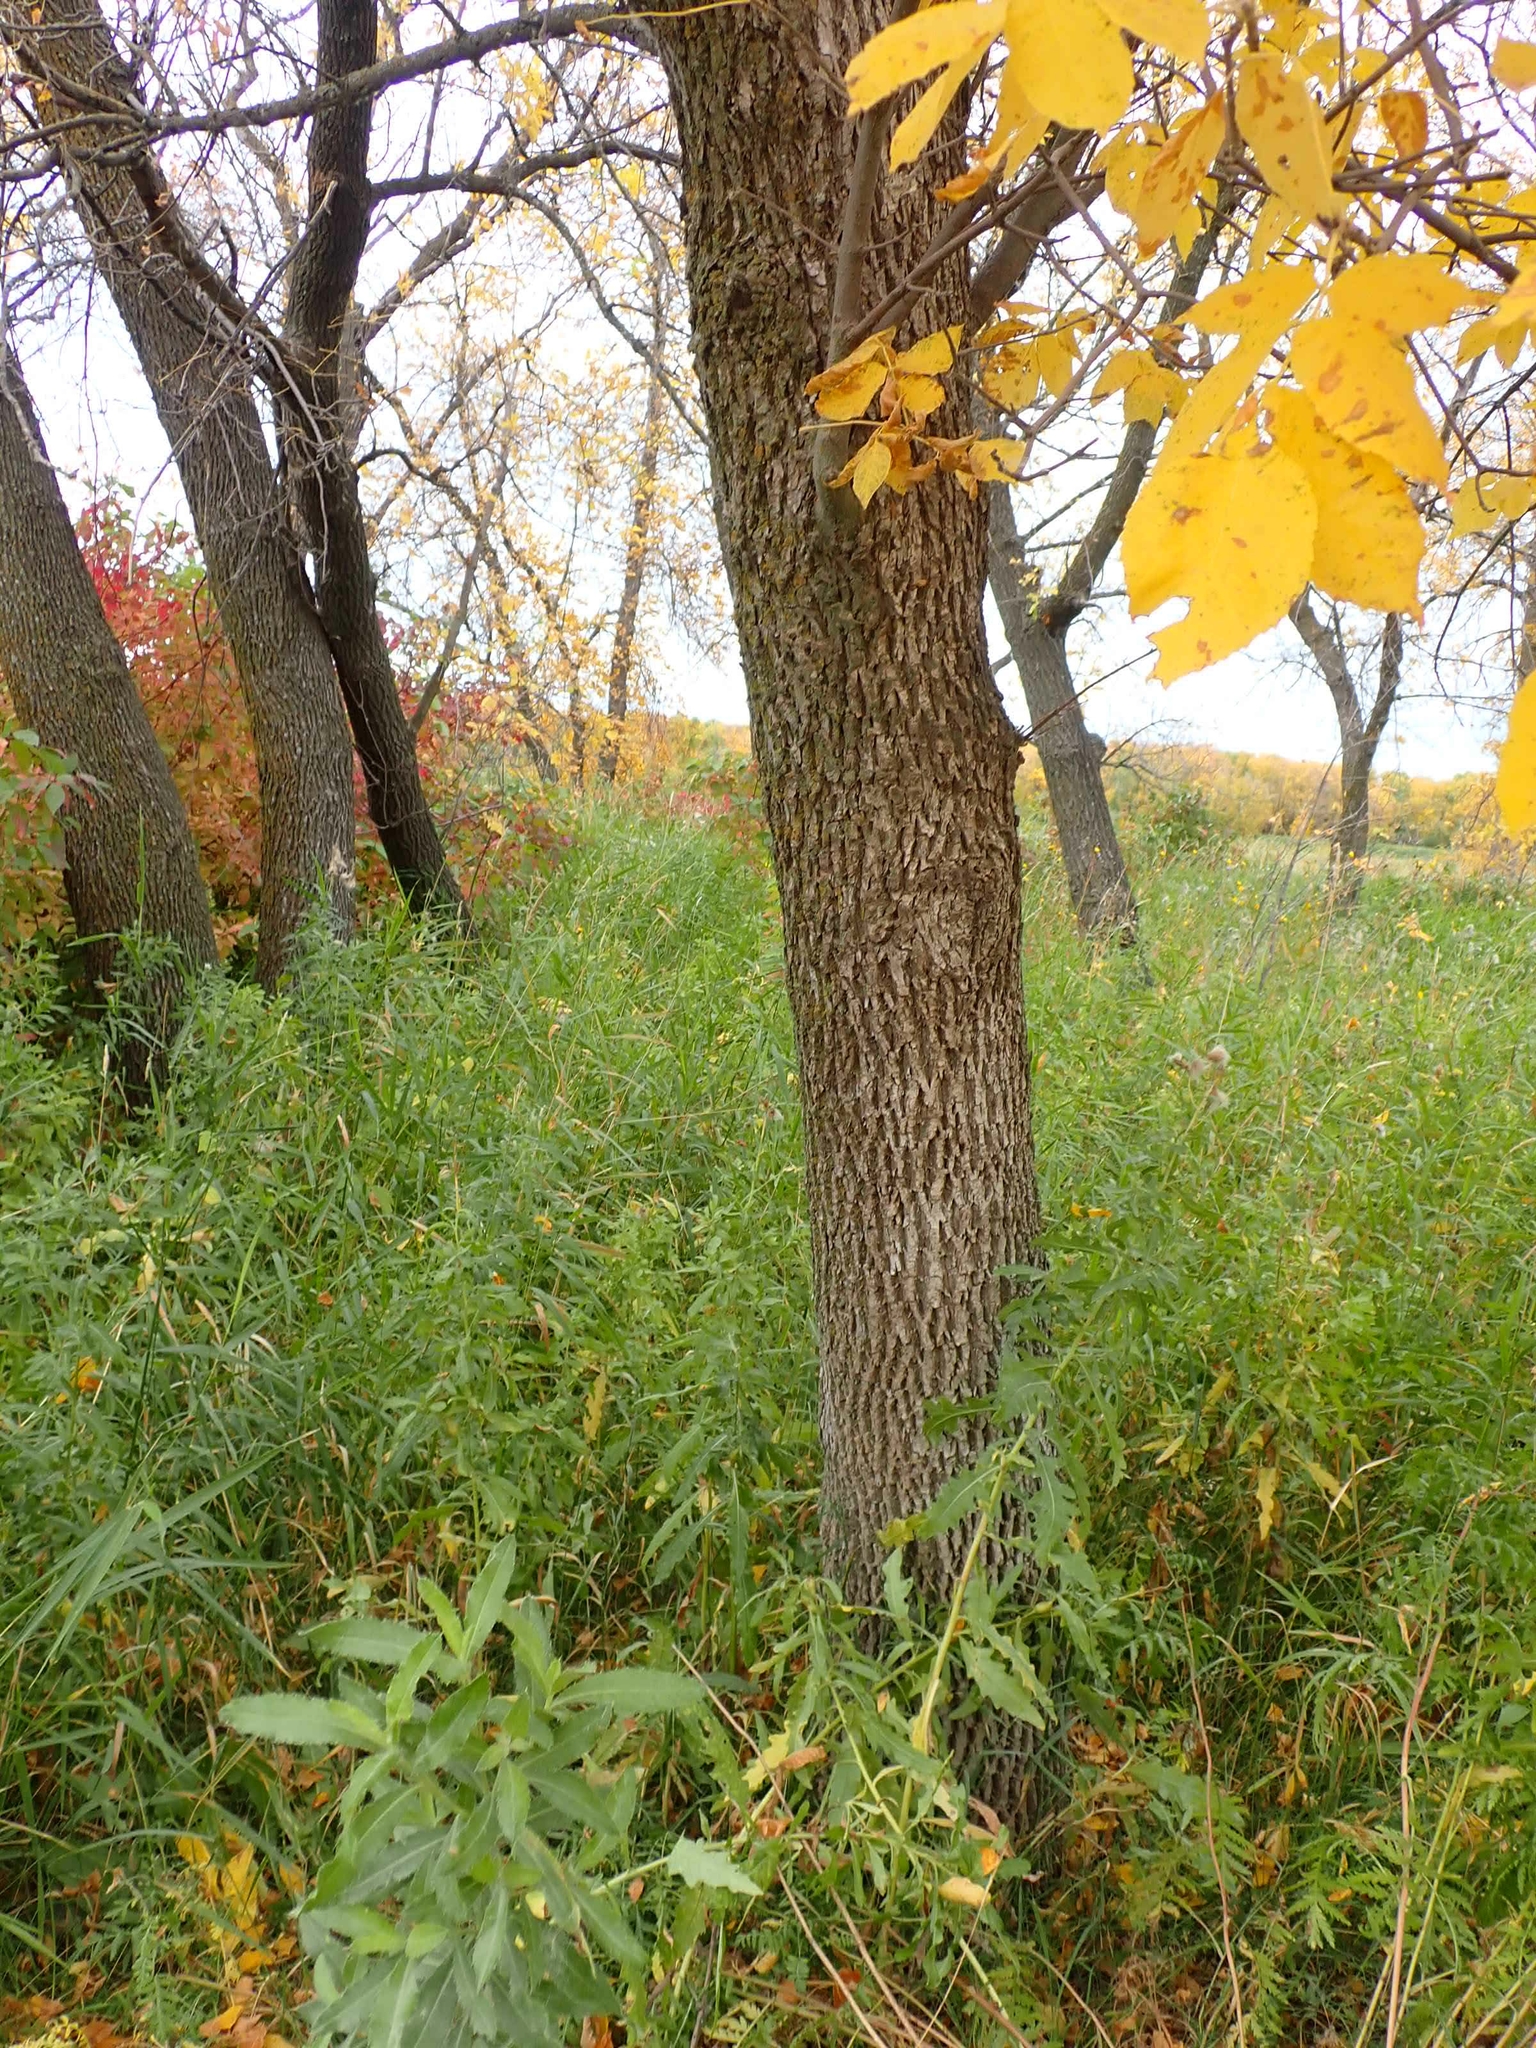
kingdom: Plantae
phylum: Tracheophyta
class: Magnoliopsida
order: Lamiales
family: Oleaceae
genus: Fraxinus
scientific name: Fraxinus pennsylvanica
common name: Green ash
